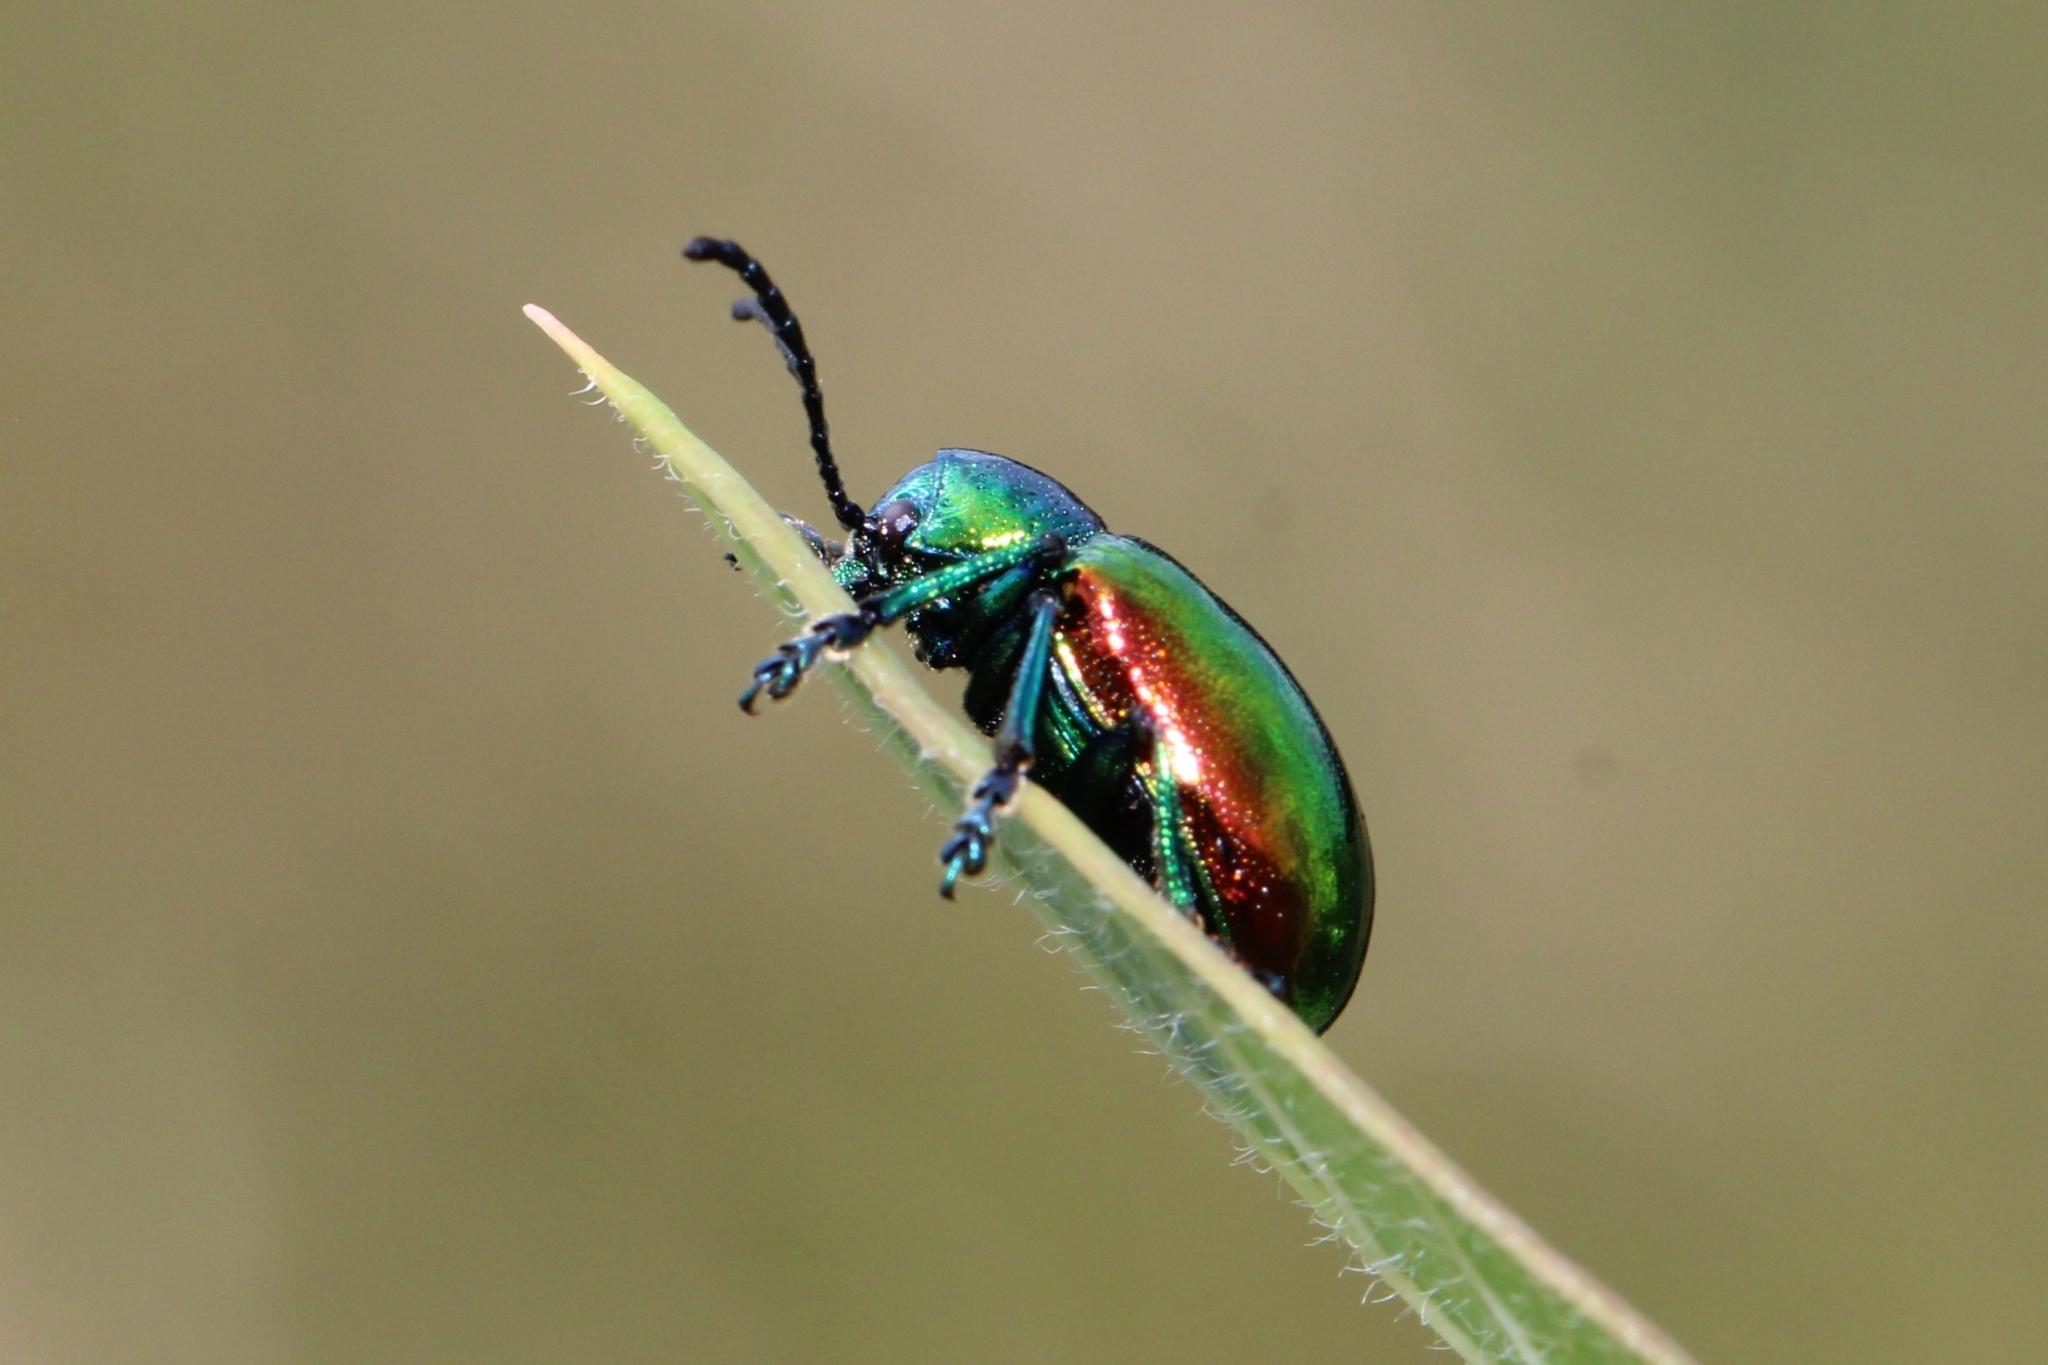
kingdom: Animalia
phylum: Arthropoda
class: Insecta
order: Coleoptera
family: Chrysomelidae
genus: Chrysochus
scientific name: Chrysochus auratus
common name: Dogbane leaf beetle
